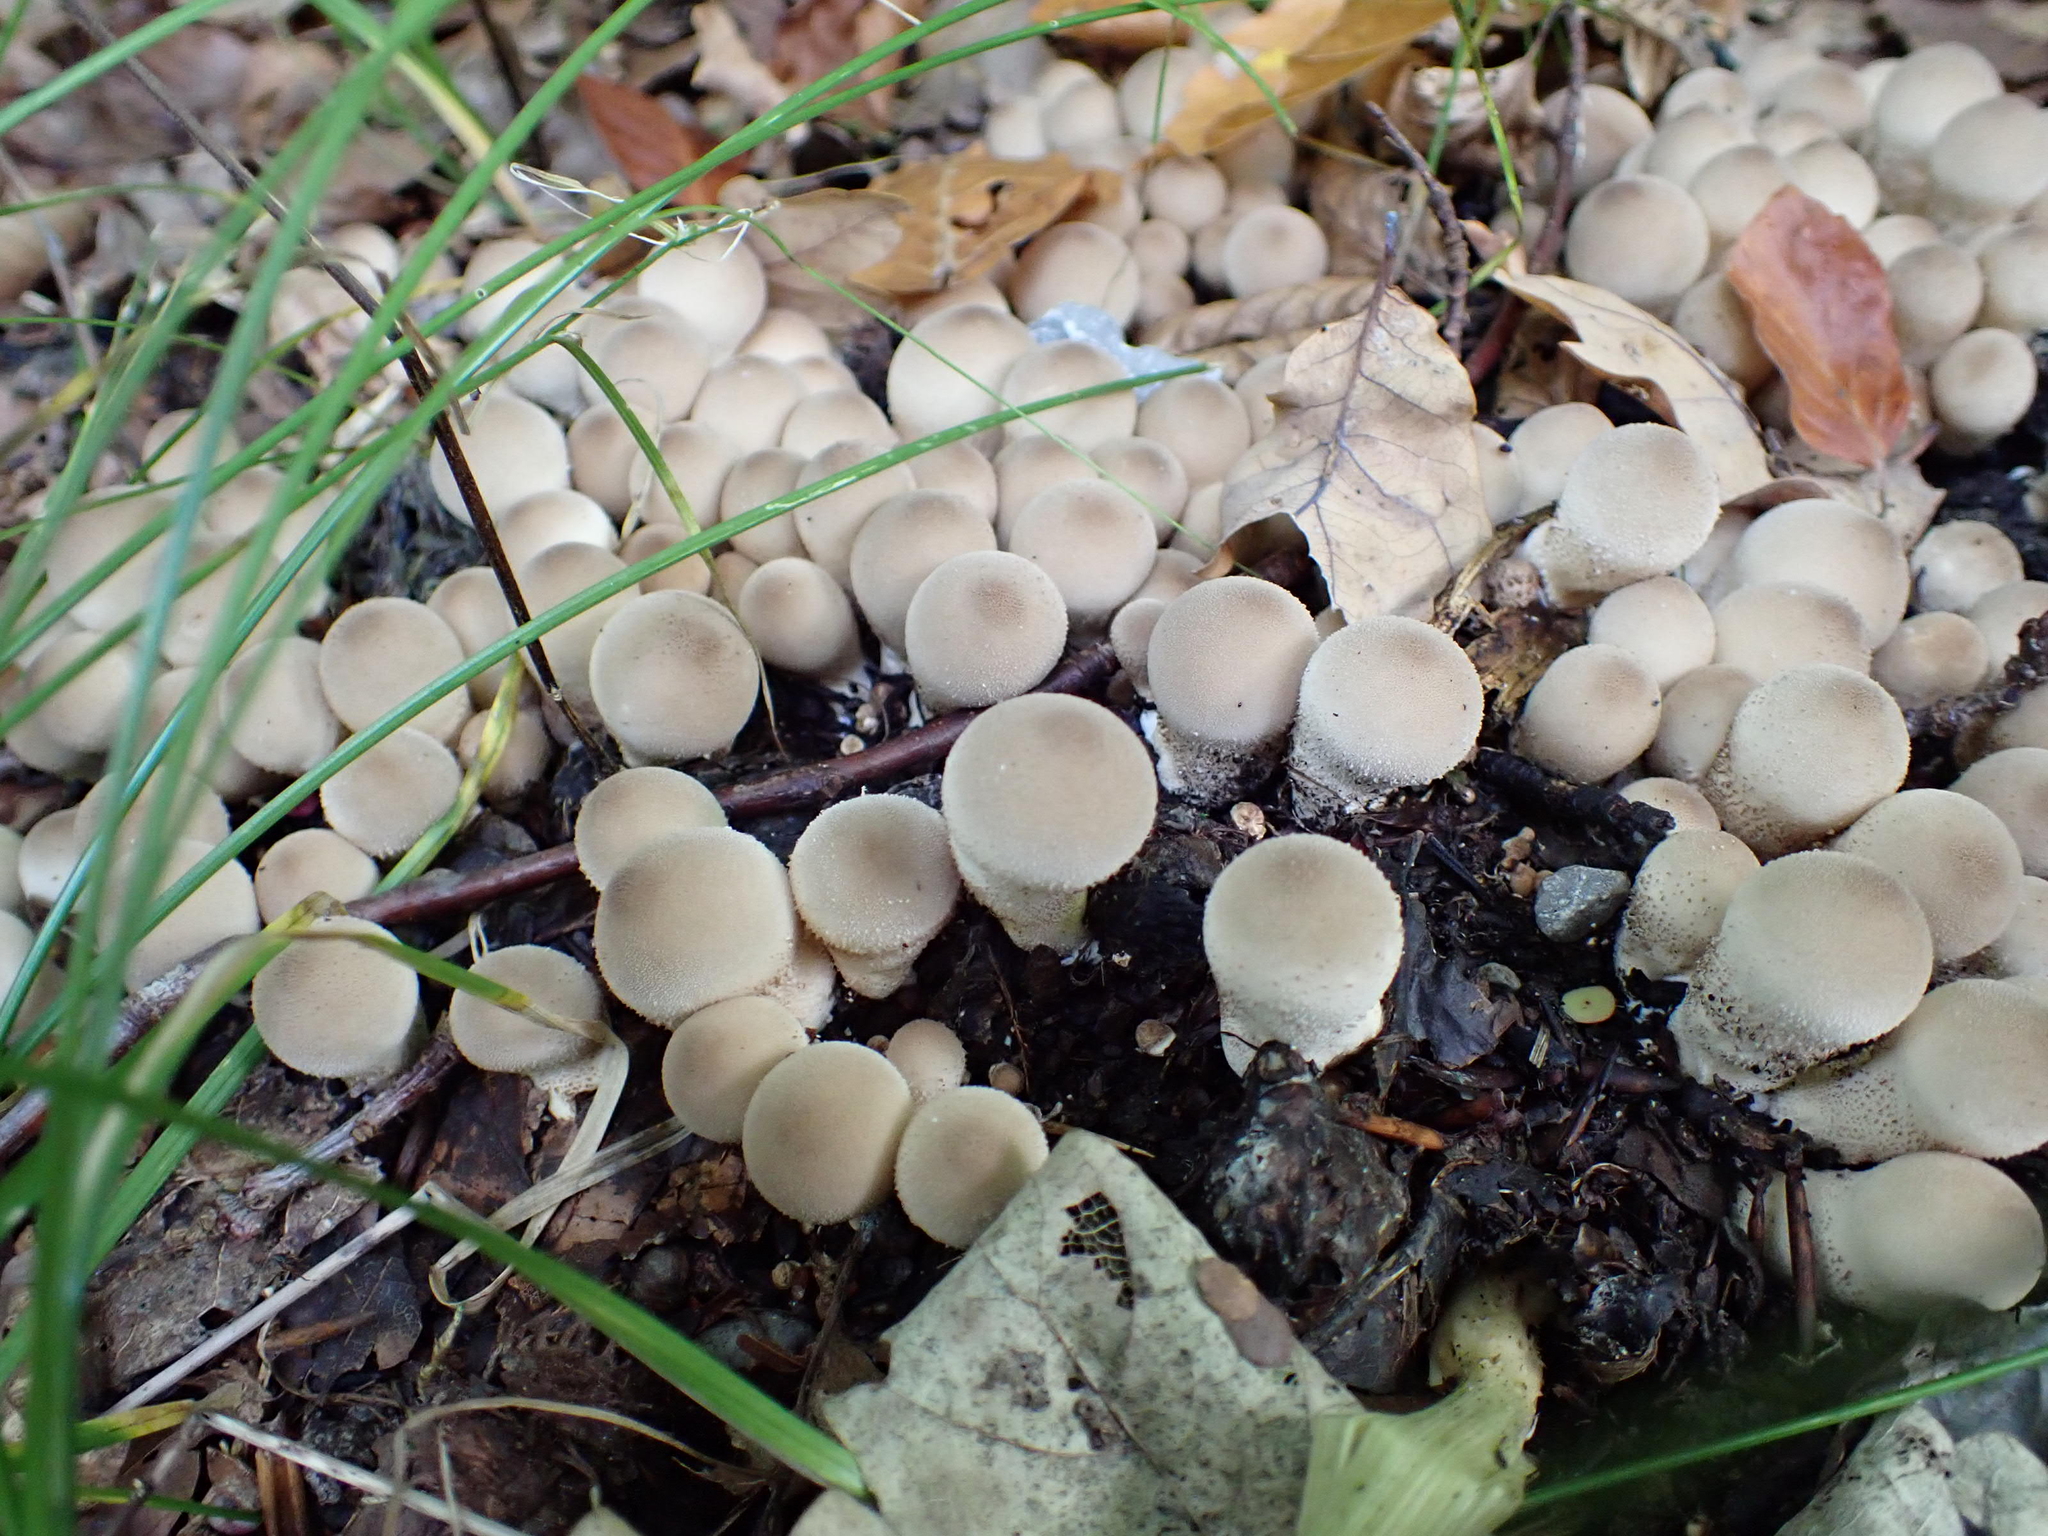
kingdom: Fungi
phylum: Basidiomycota
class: Agaricomycetes
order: Agaricales
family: Lycoperdaceae
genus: Apioperdon
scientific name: Apioperdon pyriforme
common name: Pear-shaped puffball
